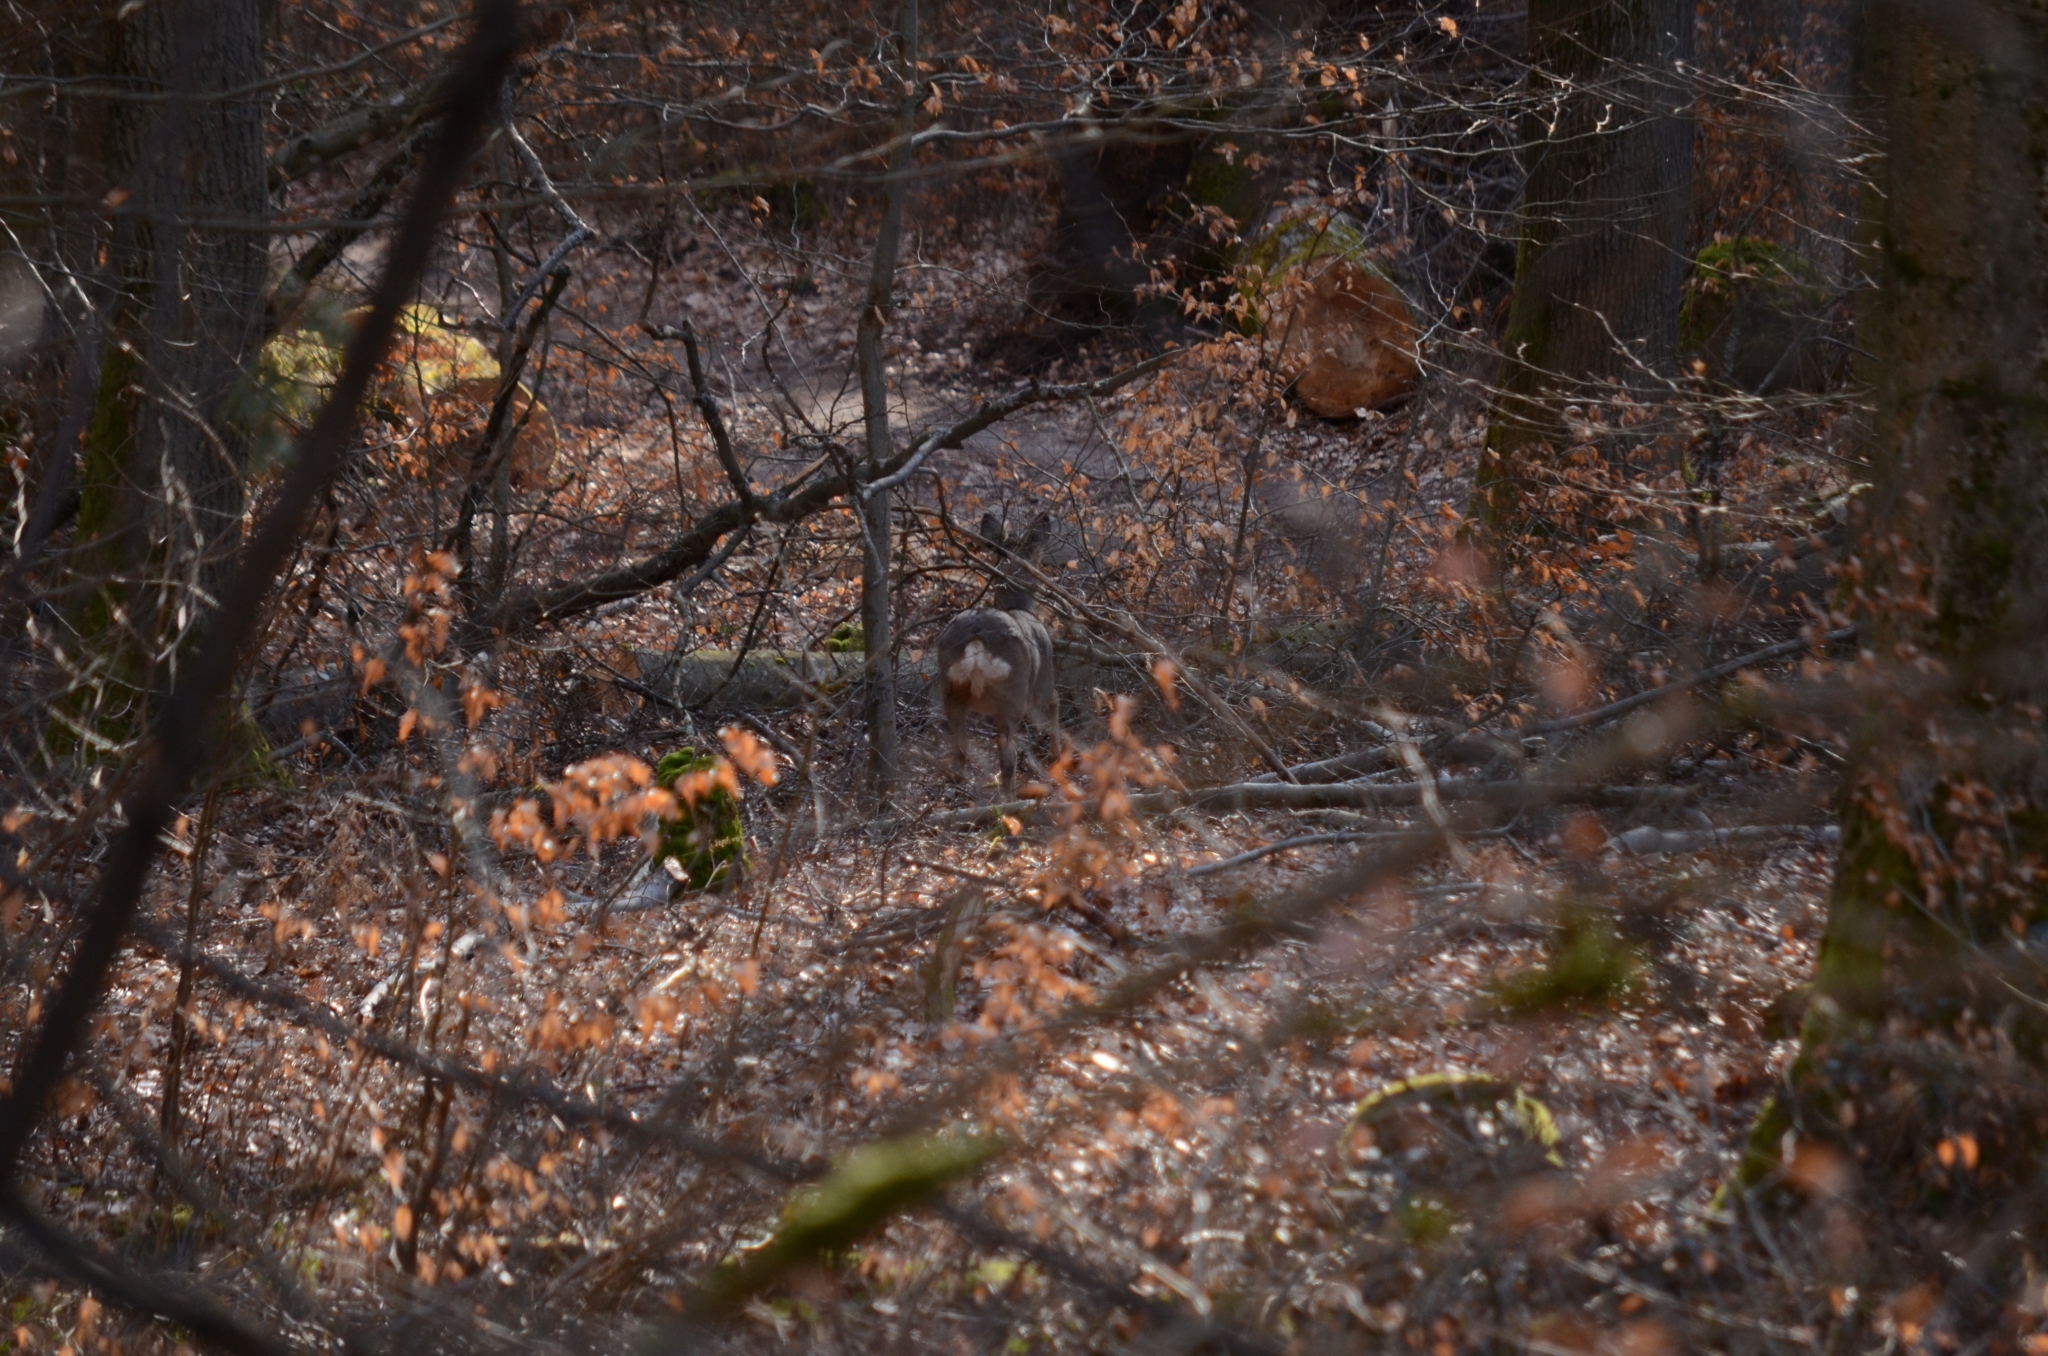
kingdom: Animalia
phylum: Chordata
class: Mammalia
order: Artiodactyla
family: Cervidae
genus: Capreolus
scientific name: Capreolus capreolus
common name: Western roe deer
